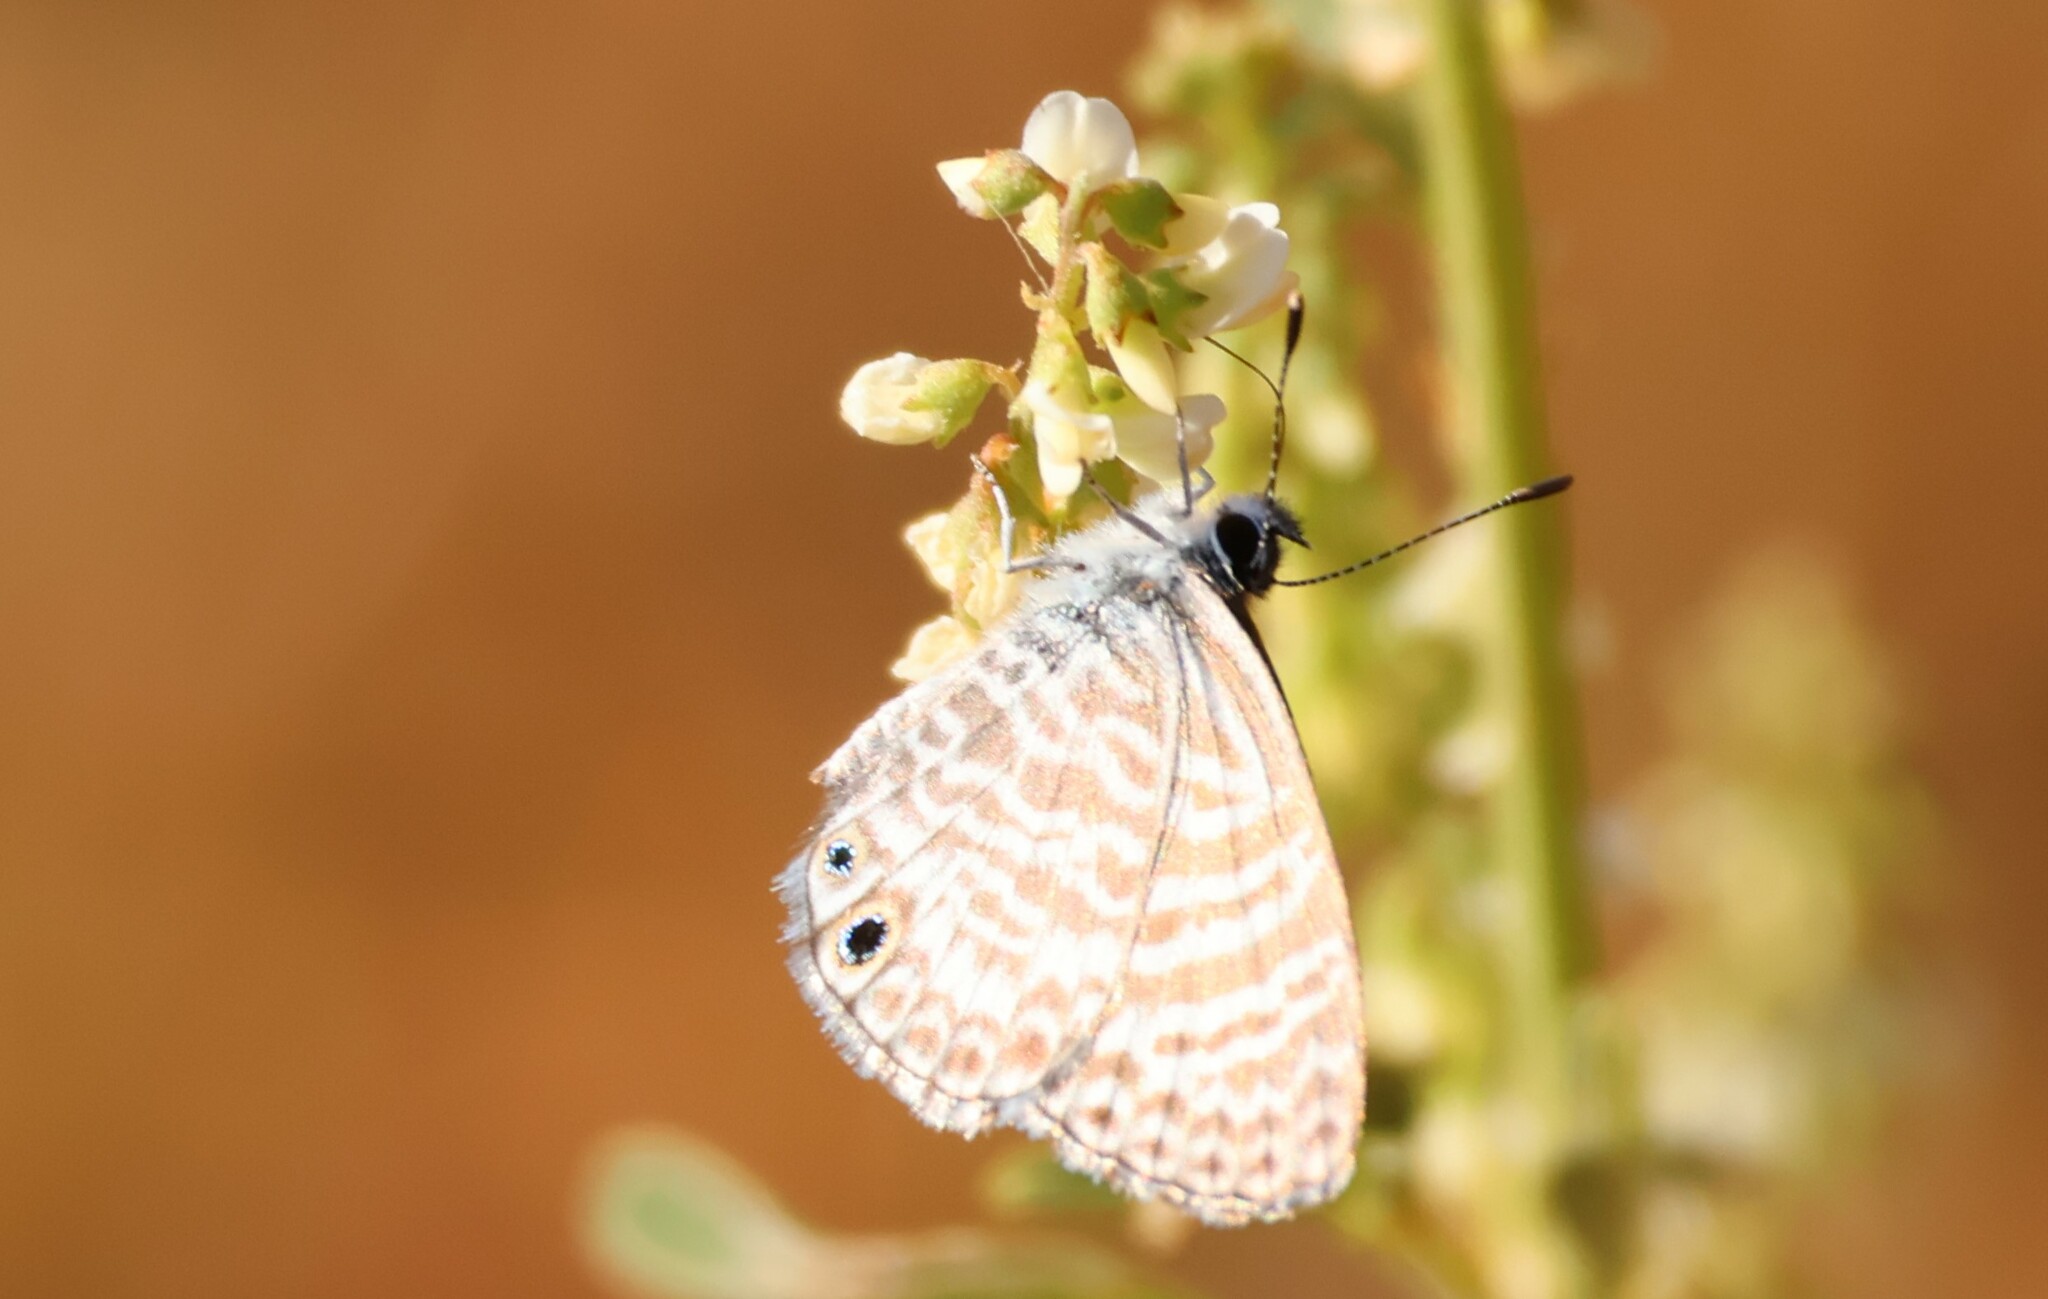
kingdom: Animalia
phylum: Arthropoda
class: Insecta
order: Lepidoptera
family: Lycaenidae
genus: Leptotes
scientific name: Leptotes marina
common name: Marine blue
